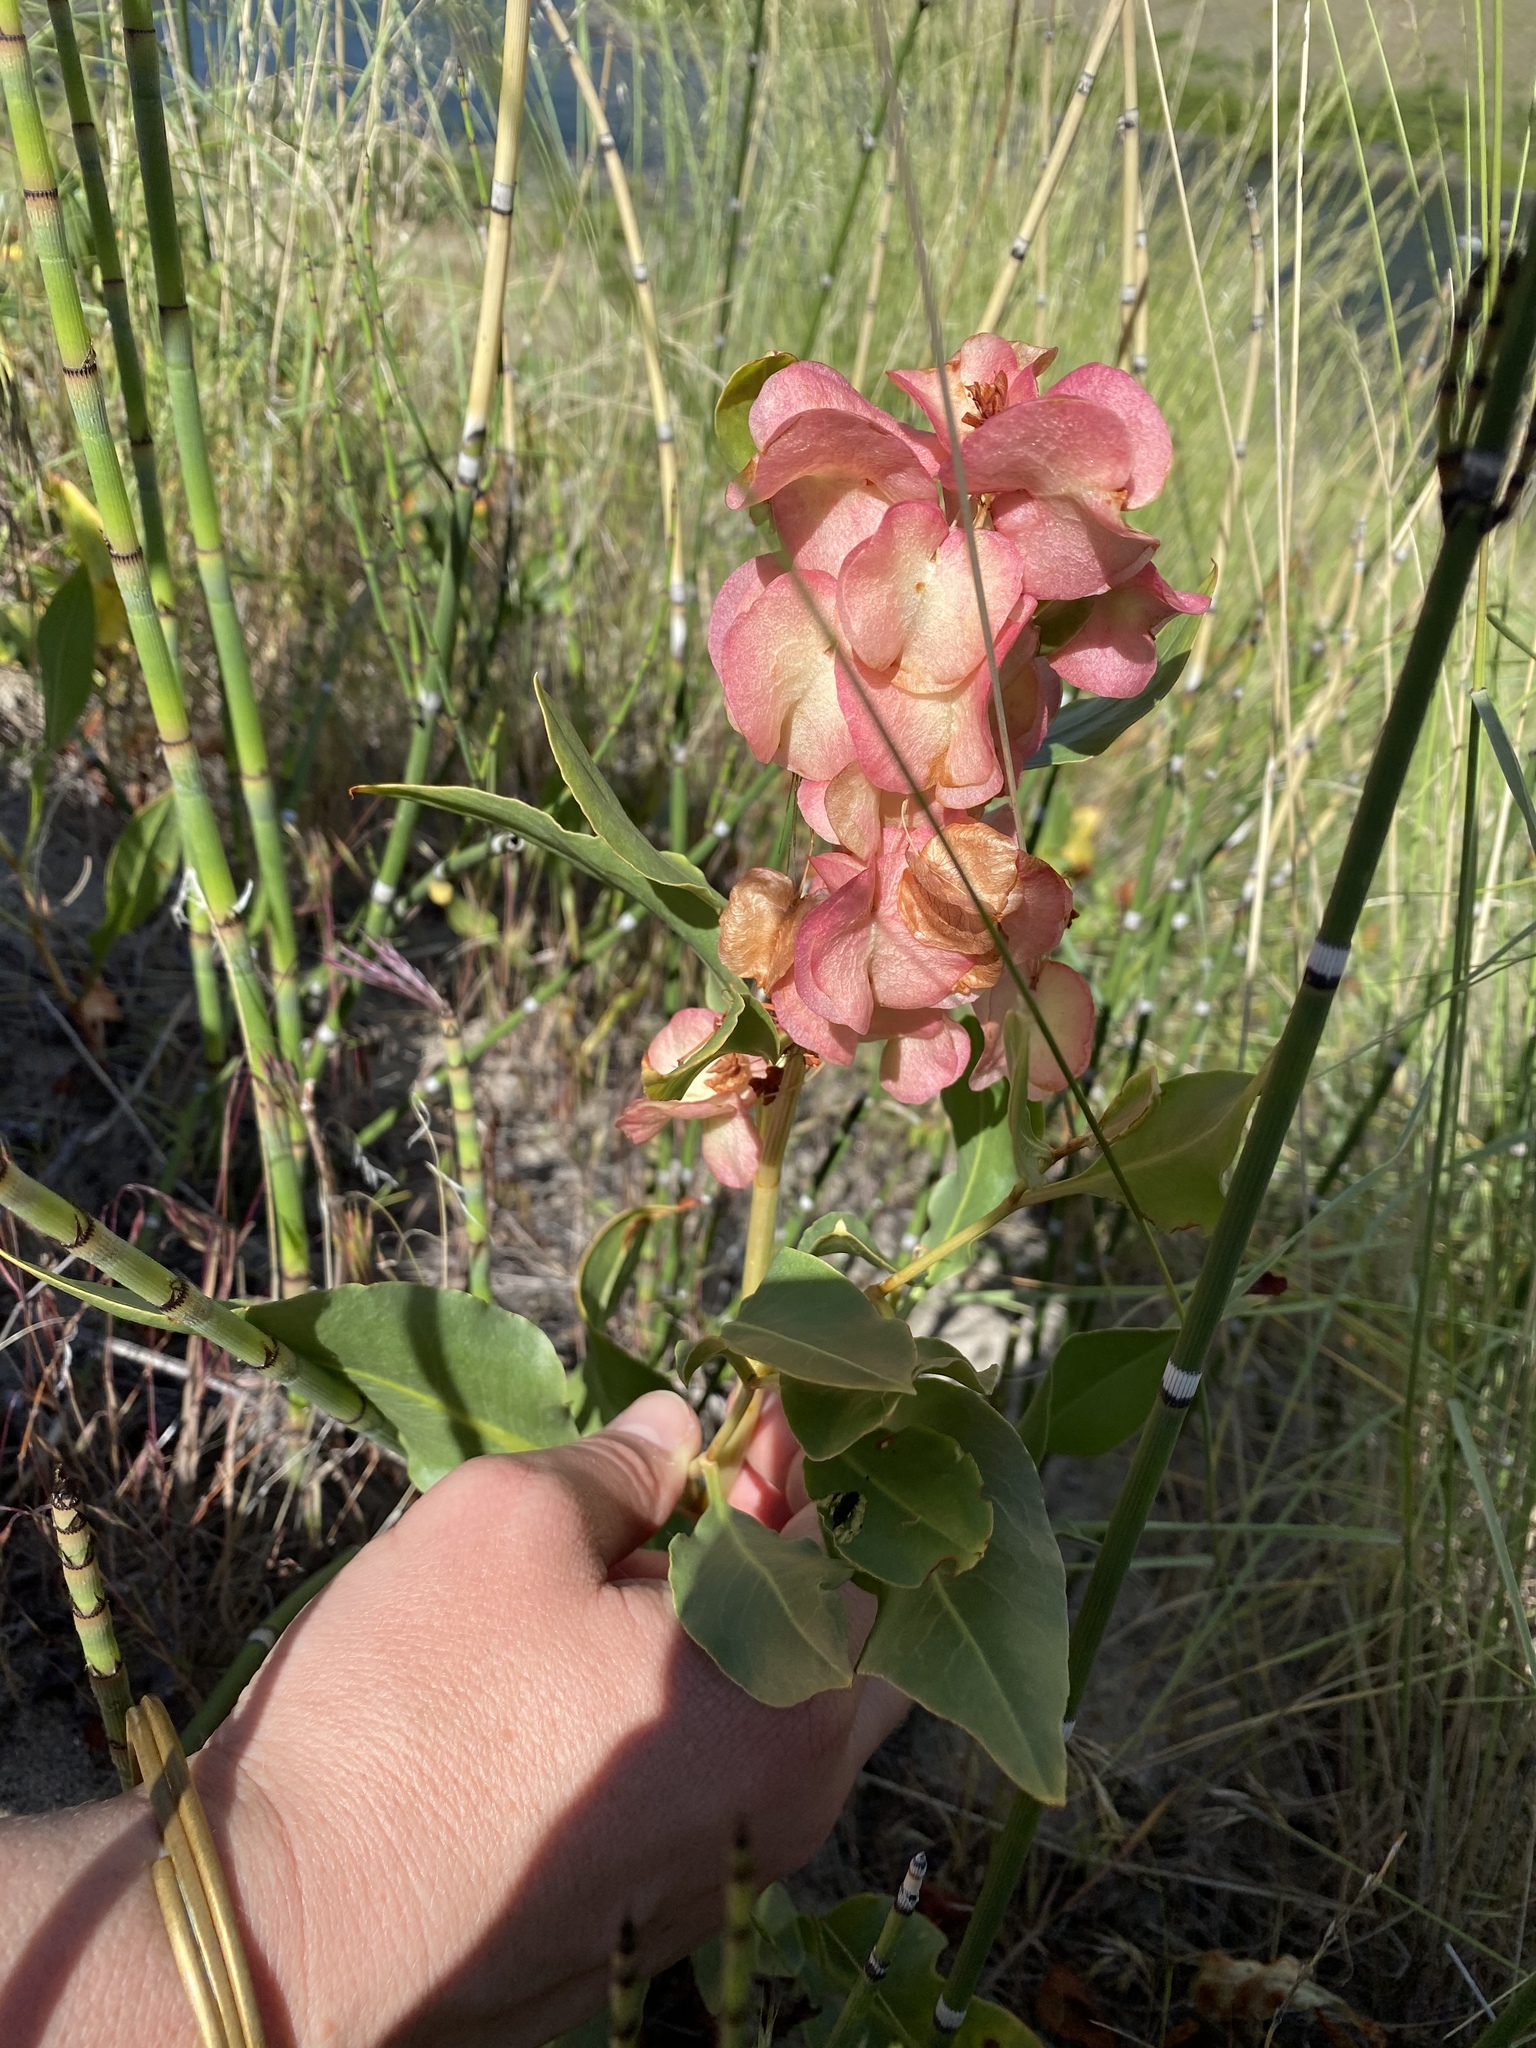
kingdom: Plantae
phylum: Tracheophyta
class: Magnoliopsida
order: Caryophyllales
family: Polygonaceae
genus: Rumex
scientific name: Rumex venosus
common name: Winged dock
